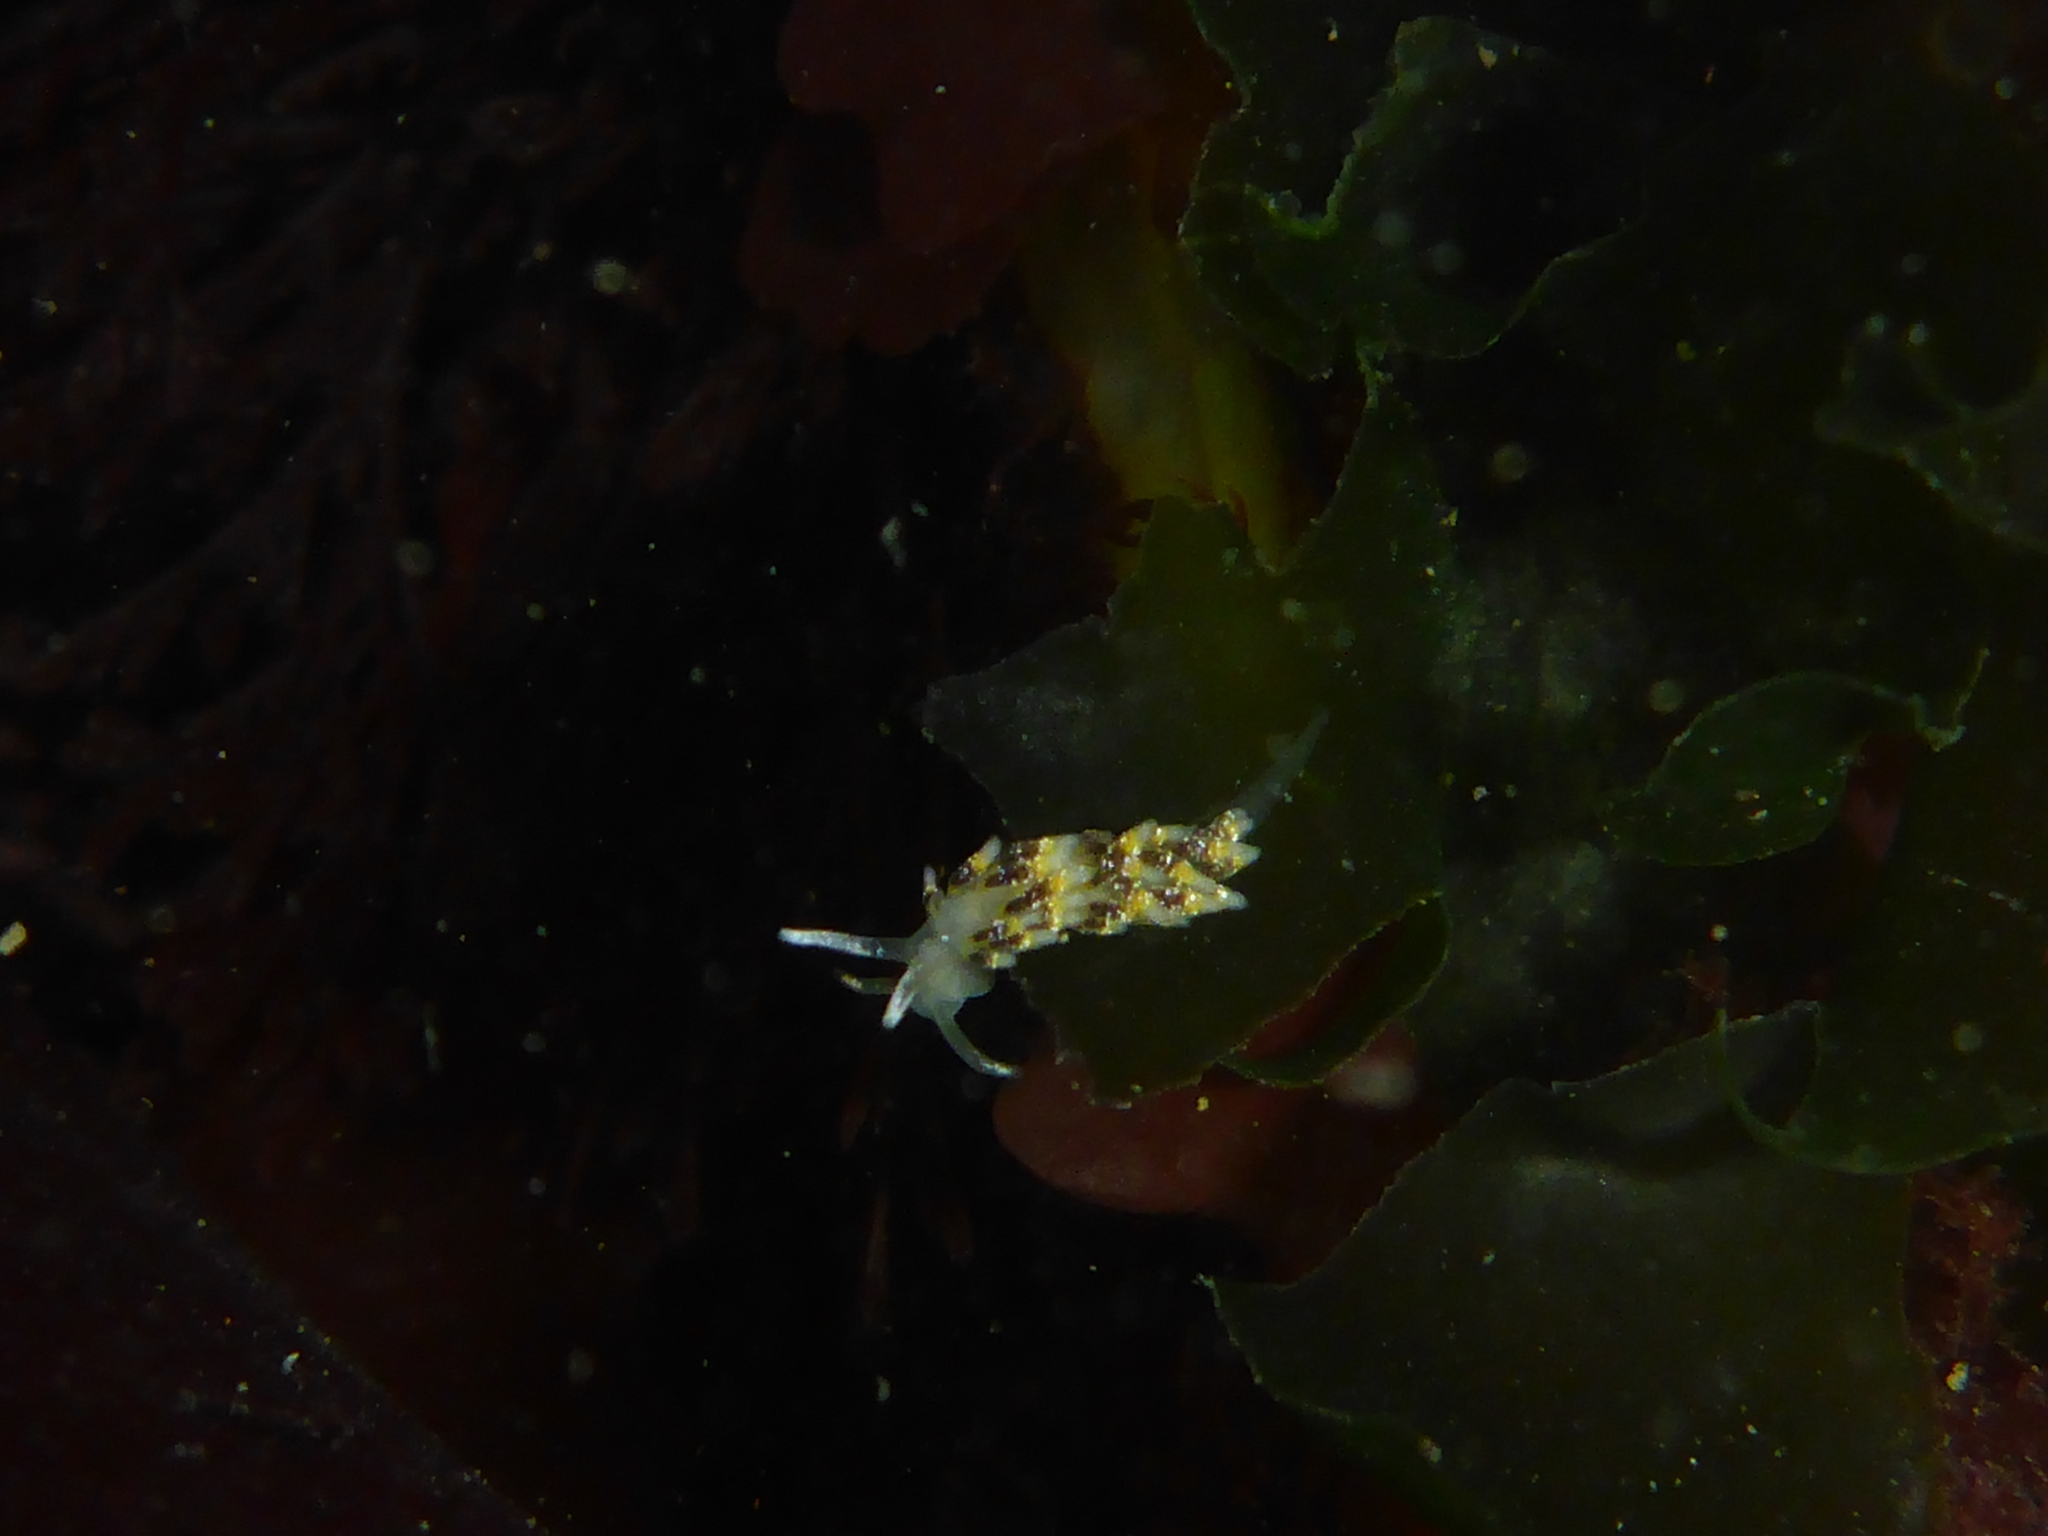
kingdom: Animalia
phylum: Mollusca
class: Gastropoda
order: Nudibranchia
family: Trinchesiidae
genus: Diaphoreolis
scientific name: Diaphoreolis flavovulta
